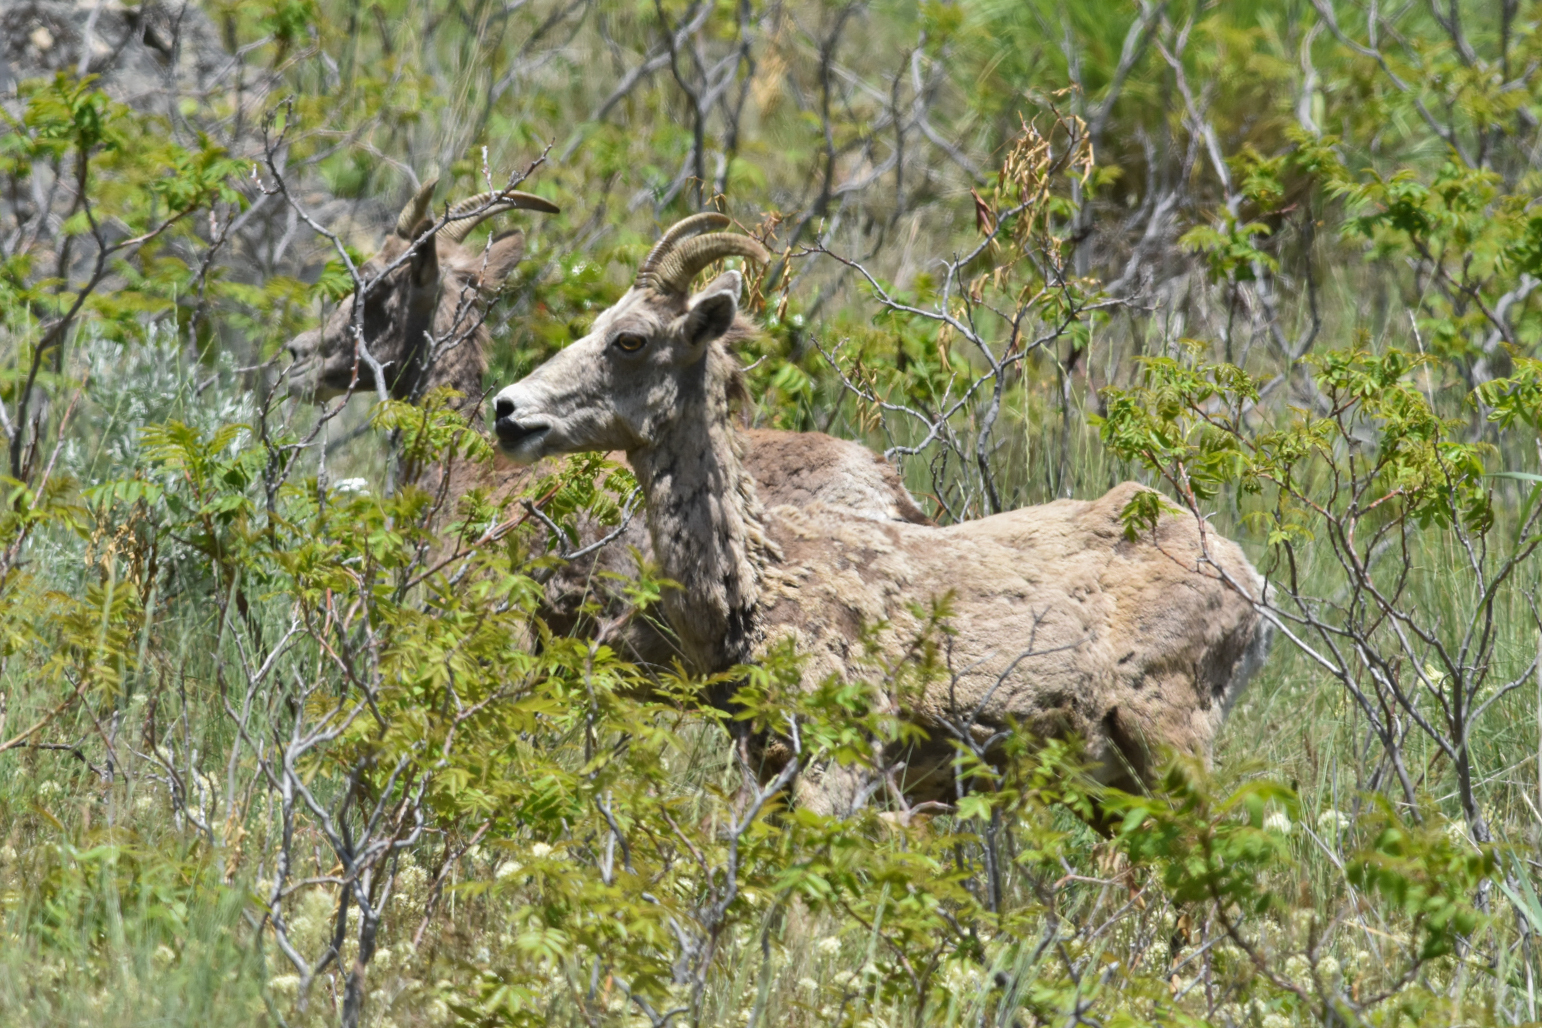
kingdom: Animalia
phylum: Chordata
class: Mammalia
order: Artiodactyla
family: Bovidae
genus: Ovis
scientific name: Ovis canadensis
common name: Bighorn sheep
